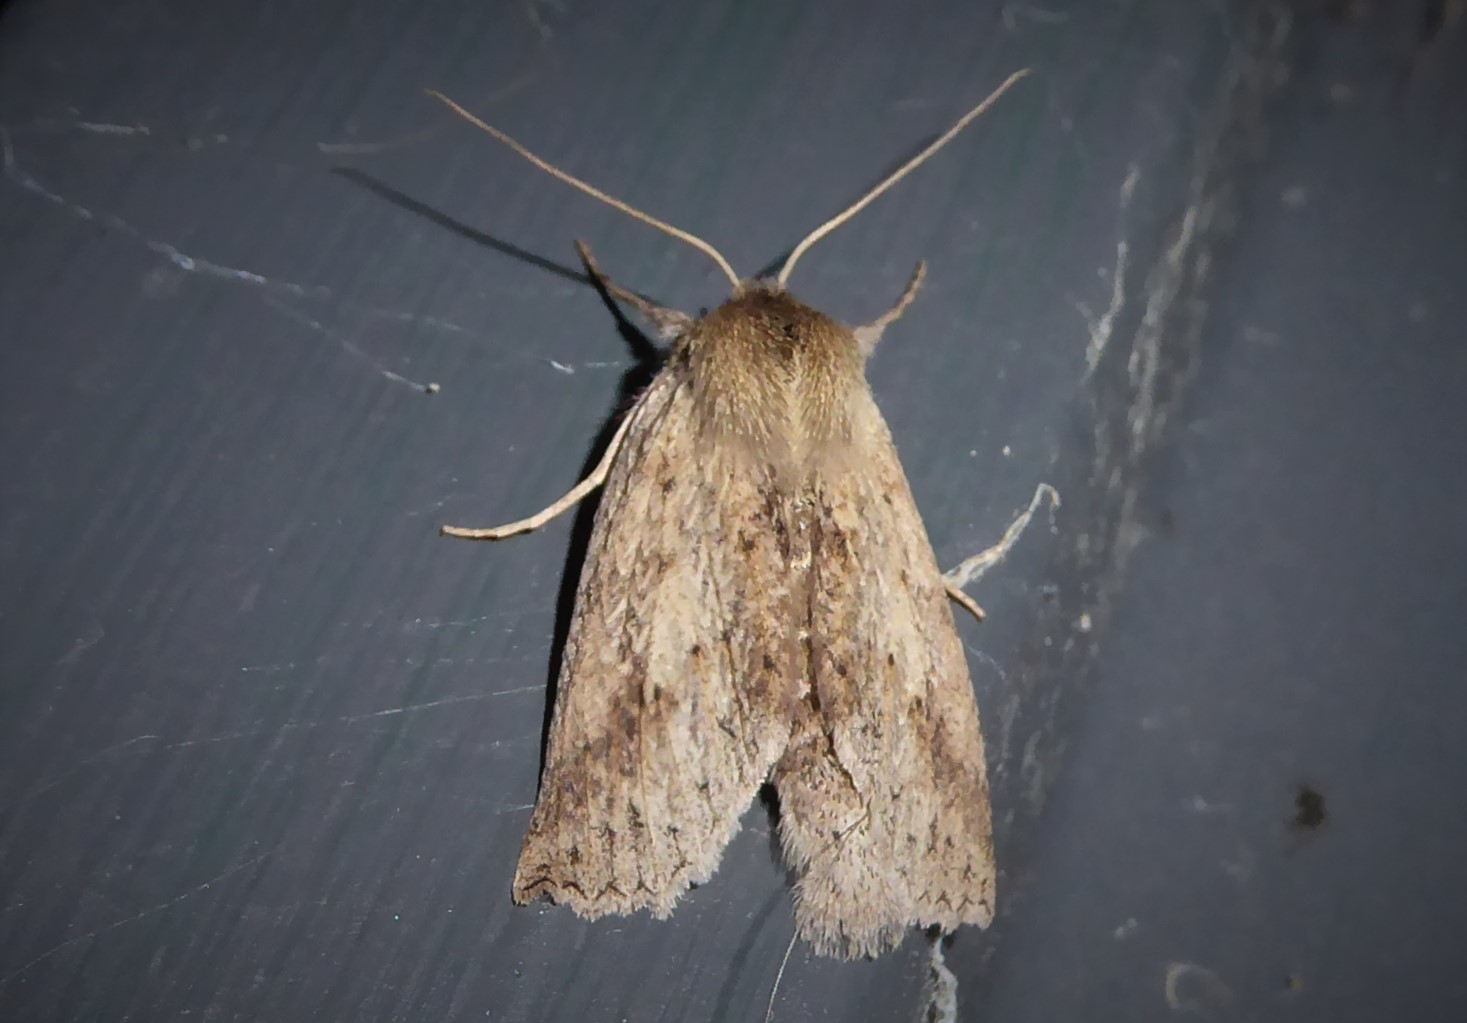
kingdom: Animalia
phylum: Arthropoda
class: Insecta
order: Lepidoptera
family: Geometridae
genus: Declana
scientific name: Declana leptomera
